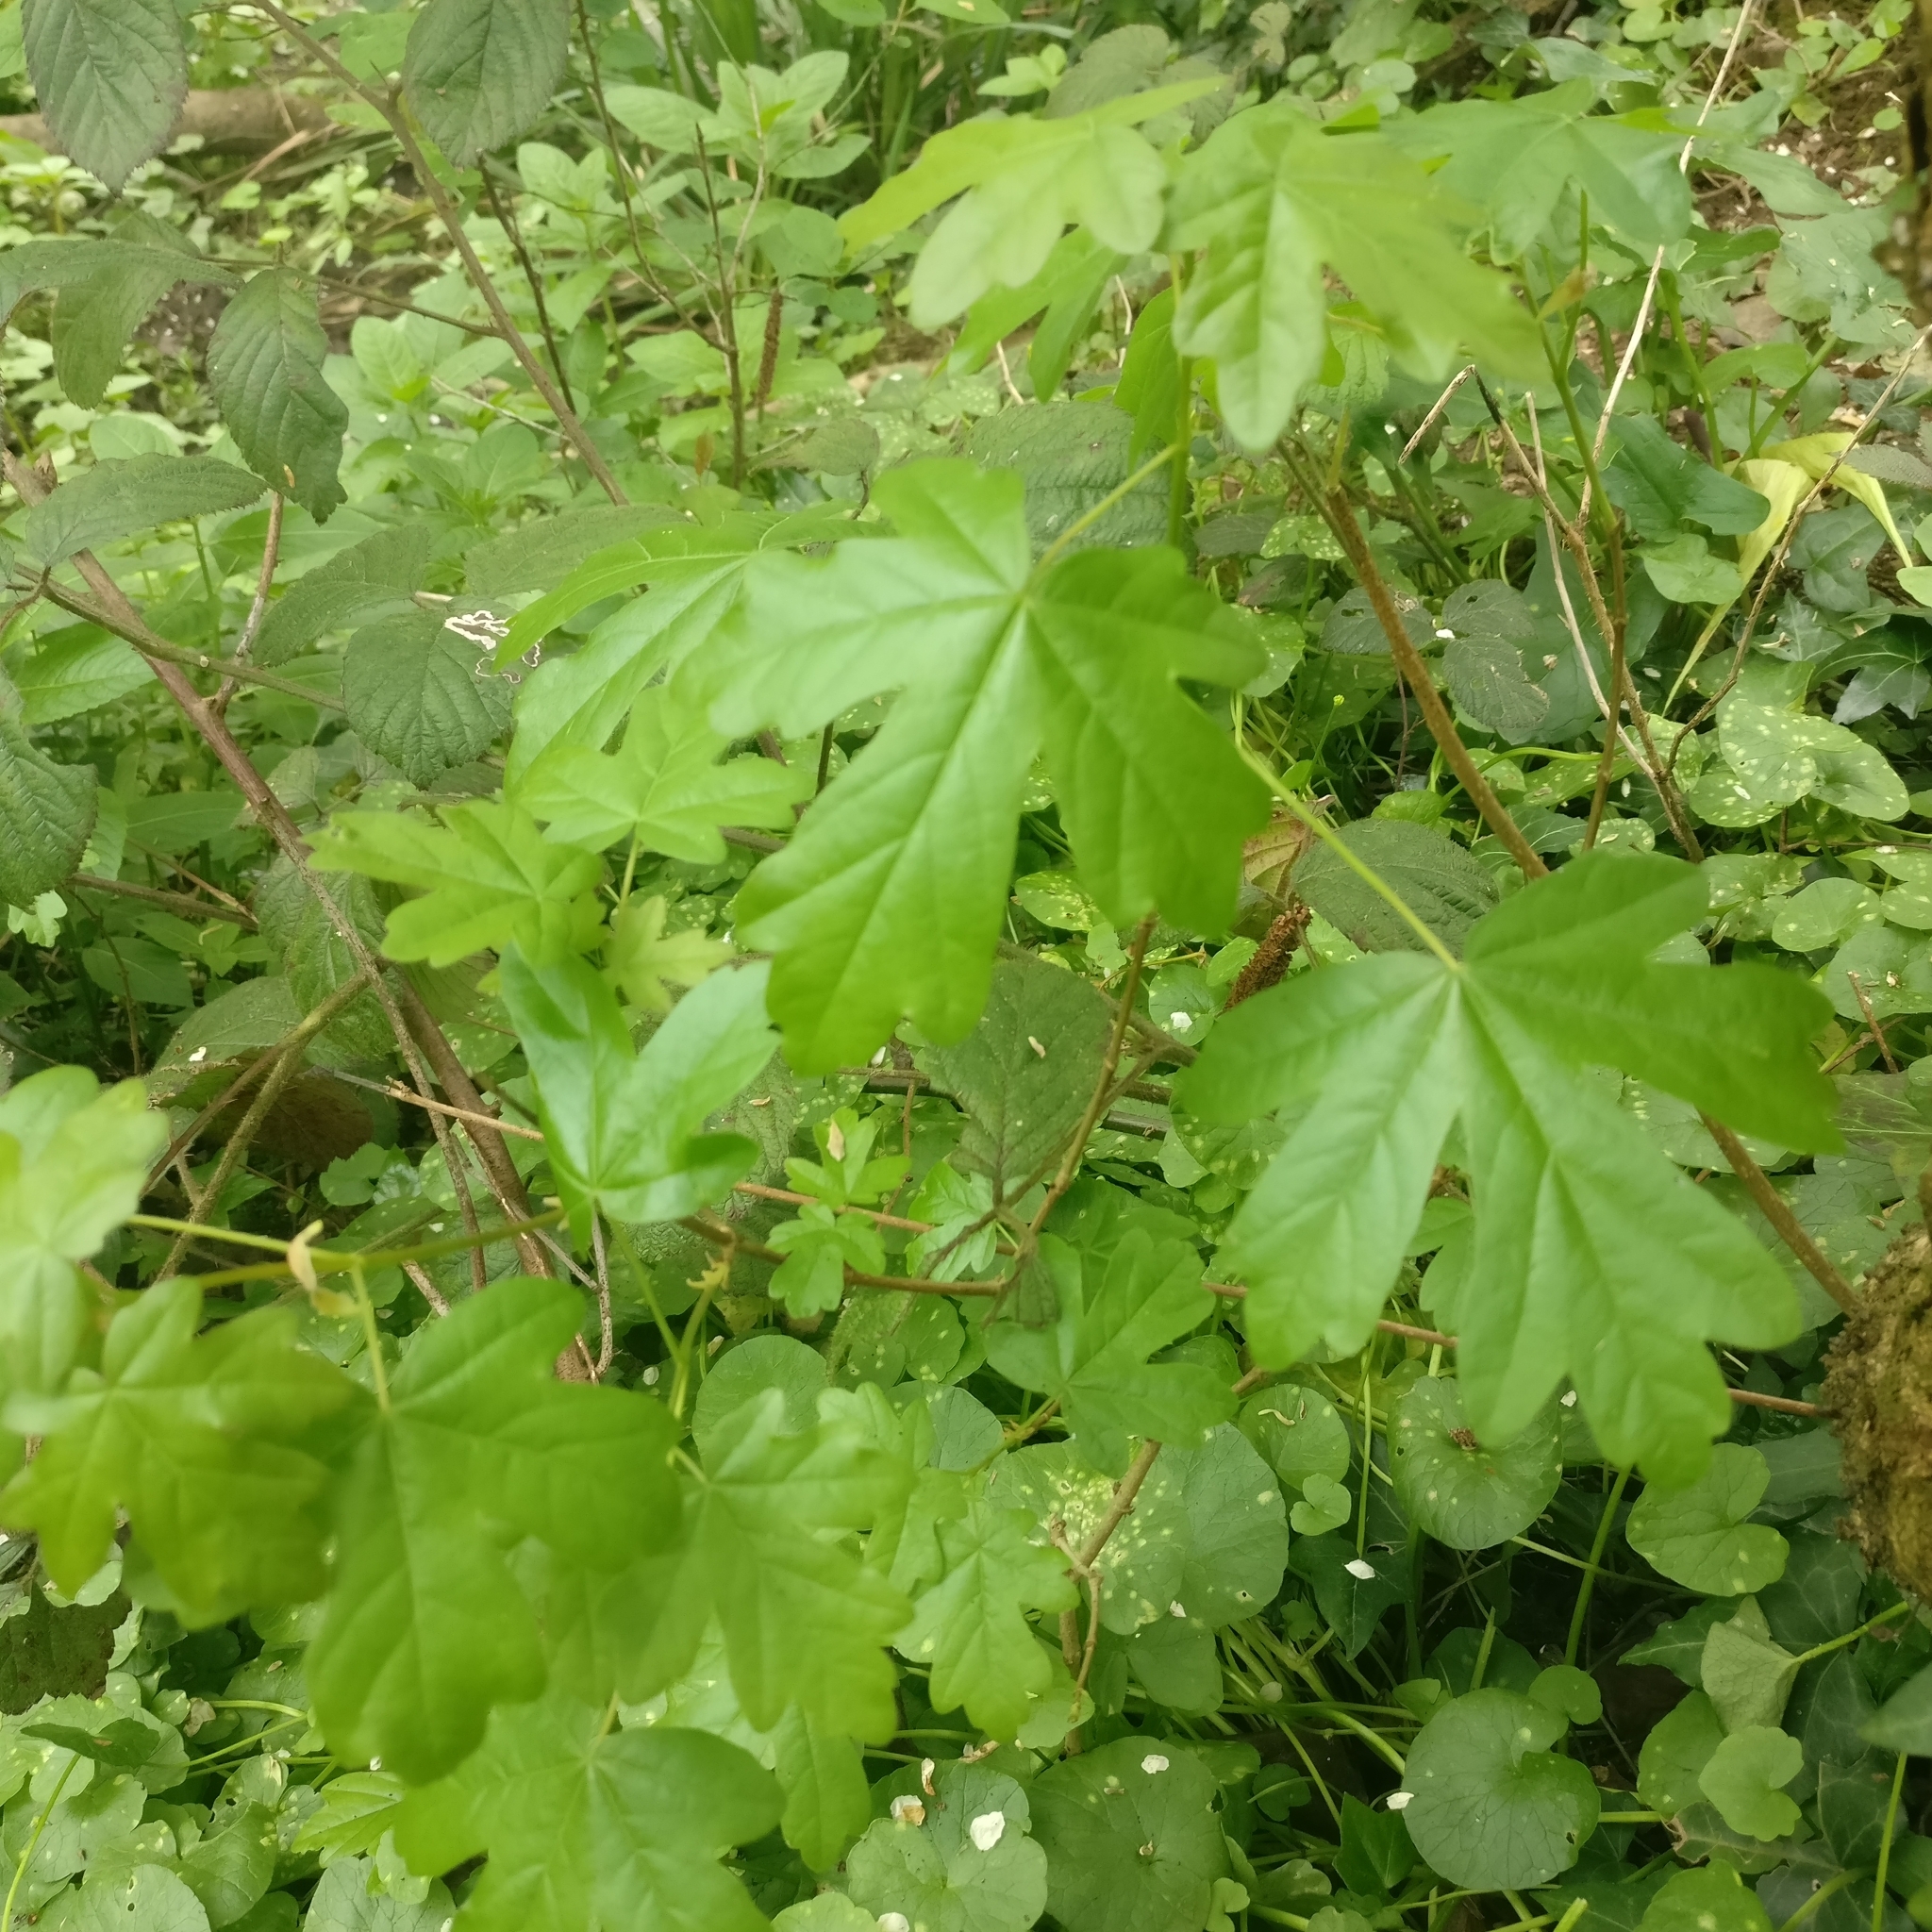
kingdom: Plantae
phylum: Tracheophyta
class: Magnoliopsida
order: Sapindales
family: Sapindaceae
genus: Acer
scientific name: Acer campestre
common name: Field maple
